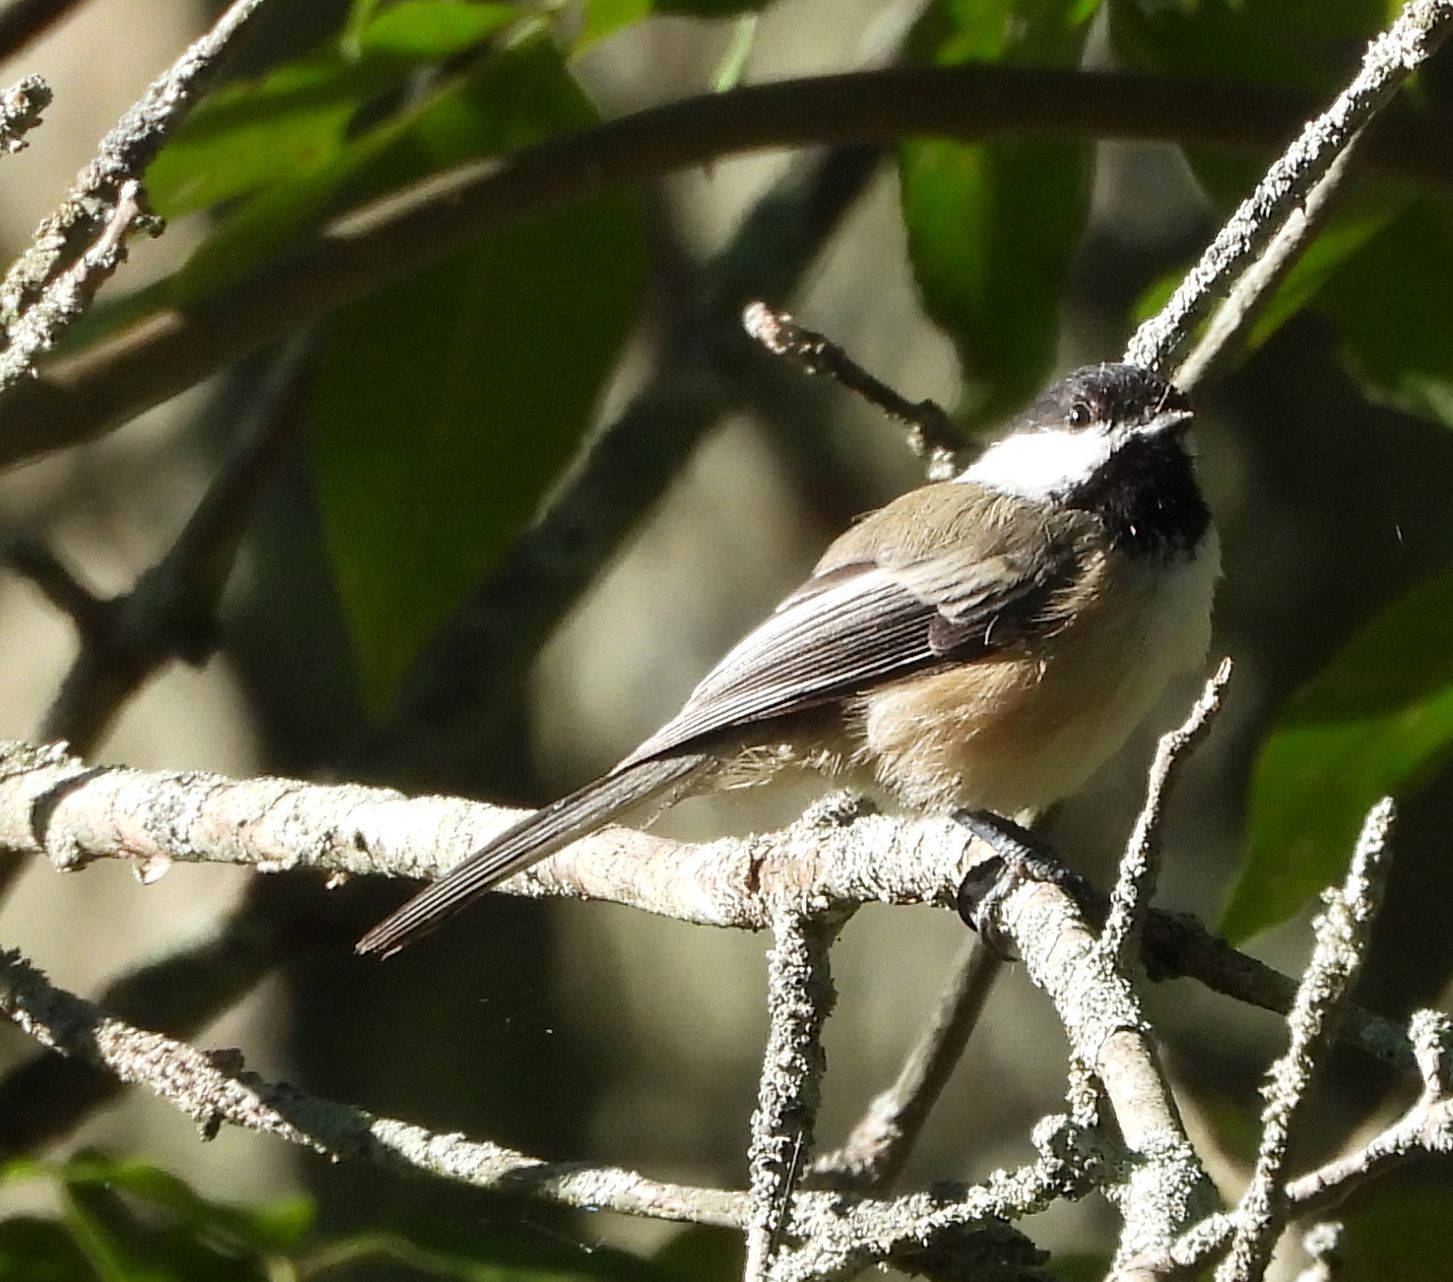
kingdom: Animalia
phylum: Chordata
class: Aves
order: Passeriformes
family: Paridae
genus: Poecile
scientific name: Poecile atricapillus
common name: Black-capped chickadee
